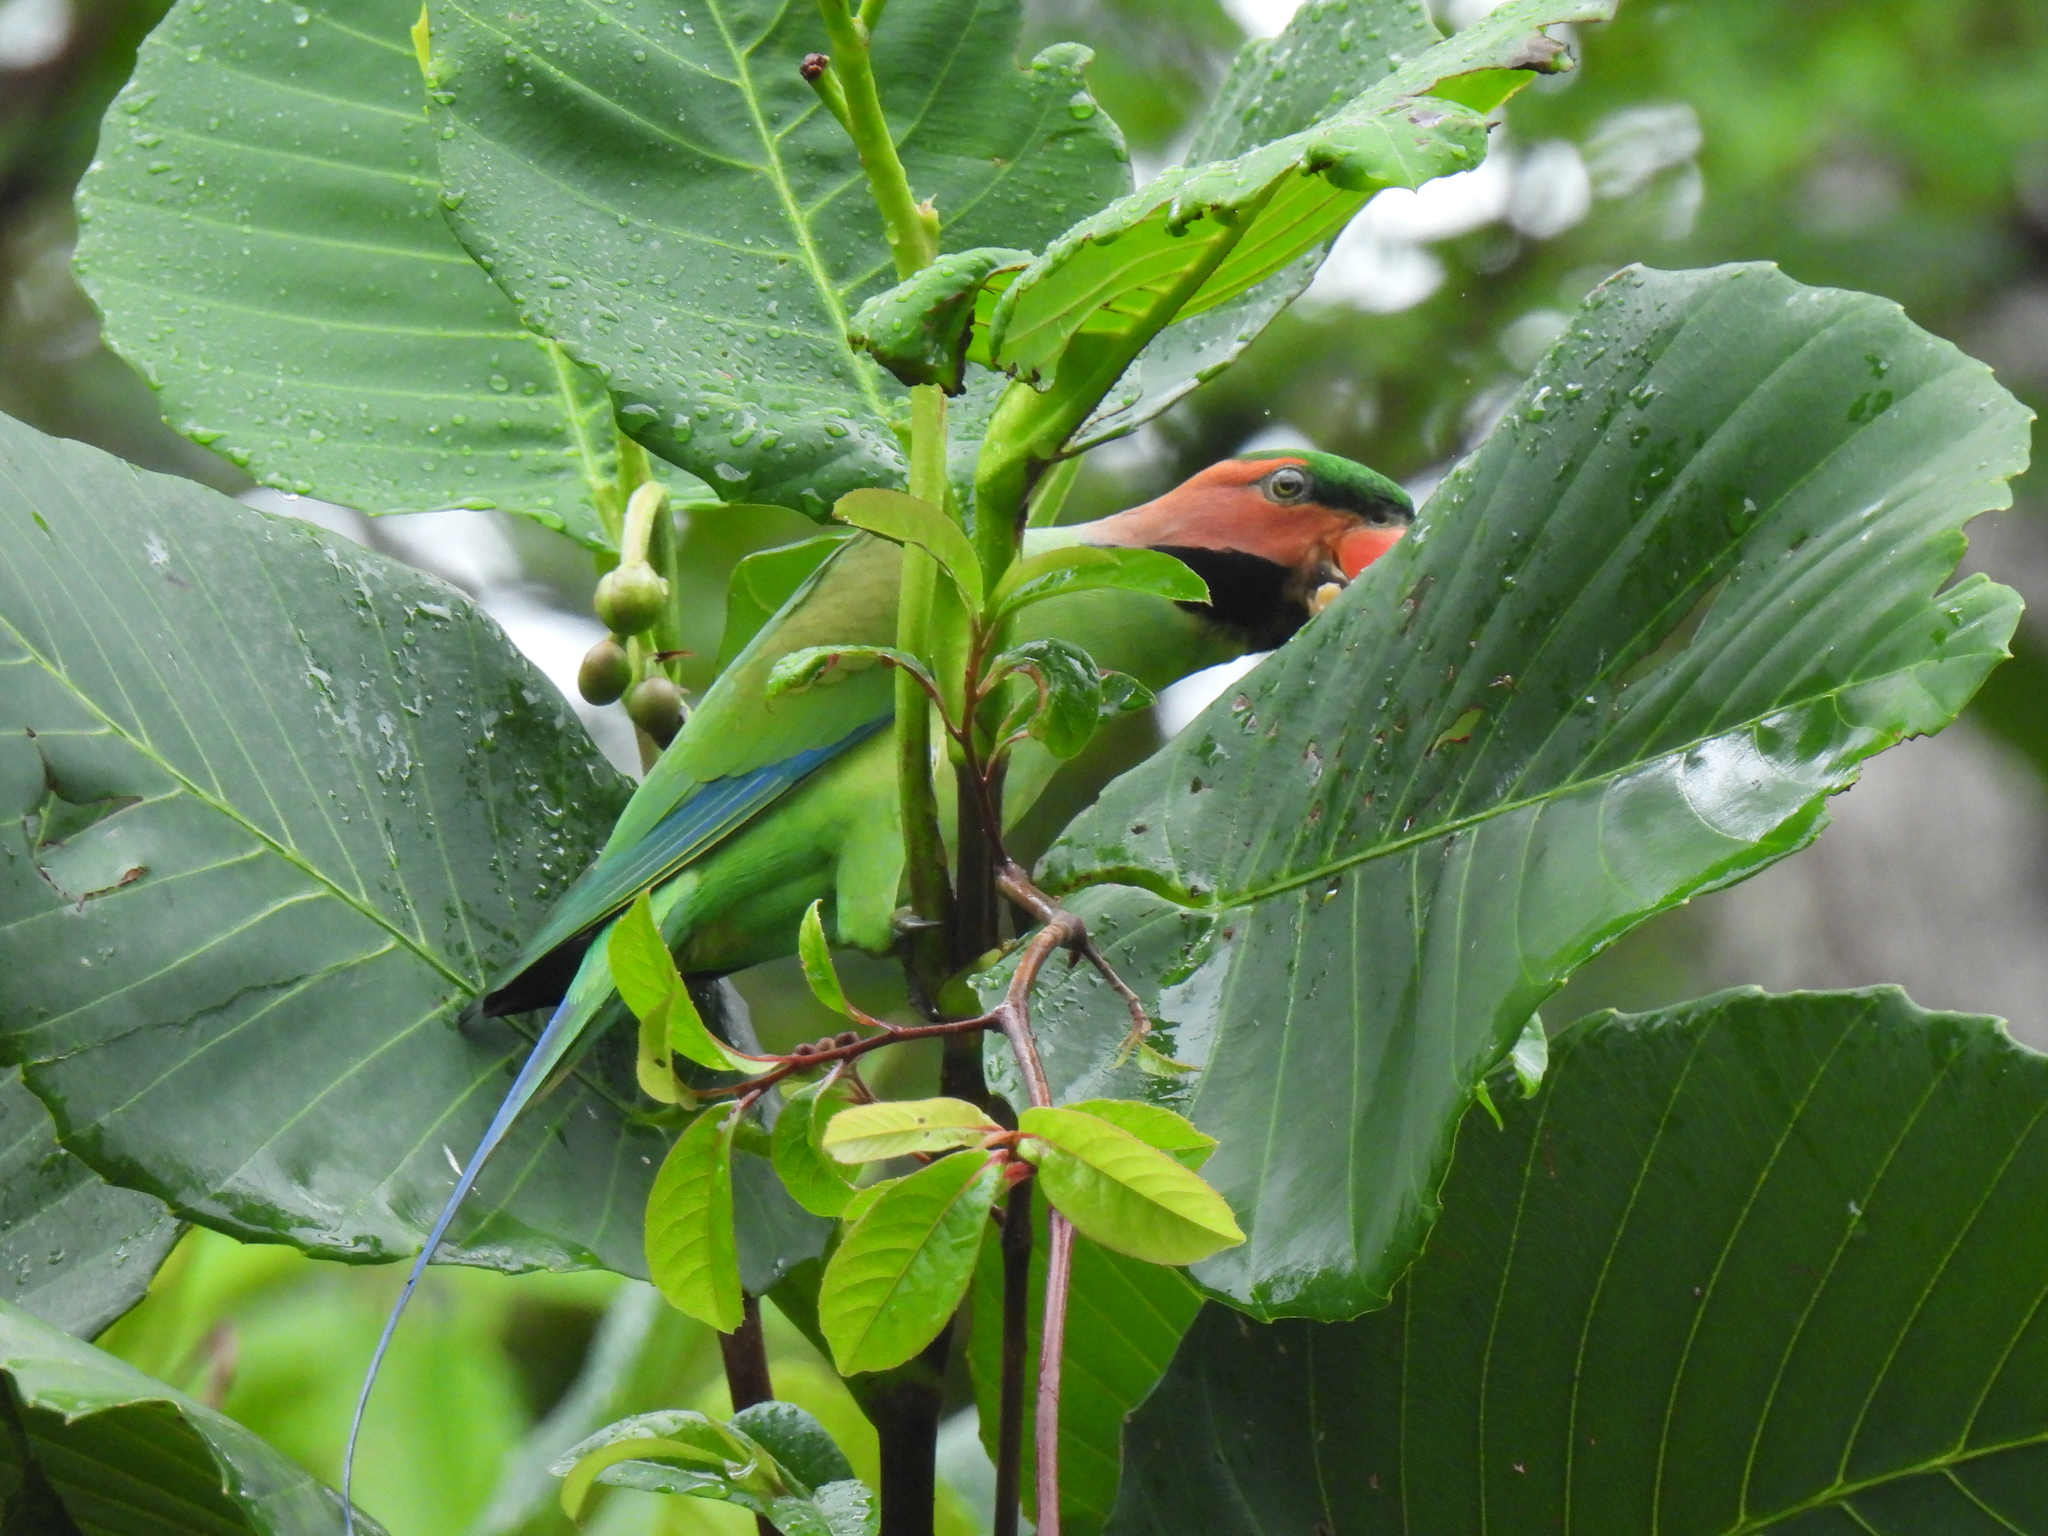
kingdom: Animalia
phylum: Chordata
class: Aves
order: Psittaciformes
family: Psittacidae
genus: Psittacula
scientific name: Psittacula longicauda
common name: Long-tailed parakeet
